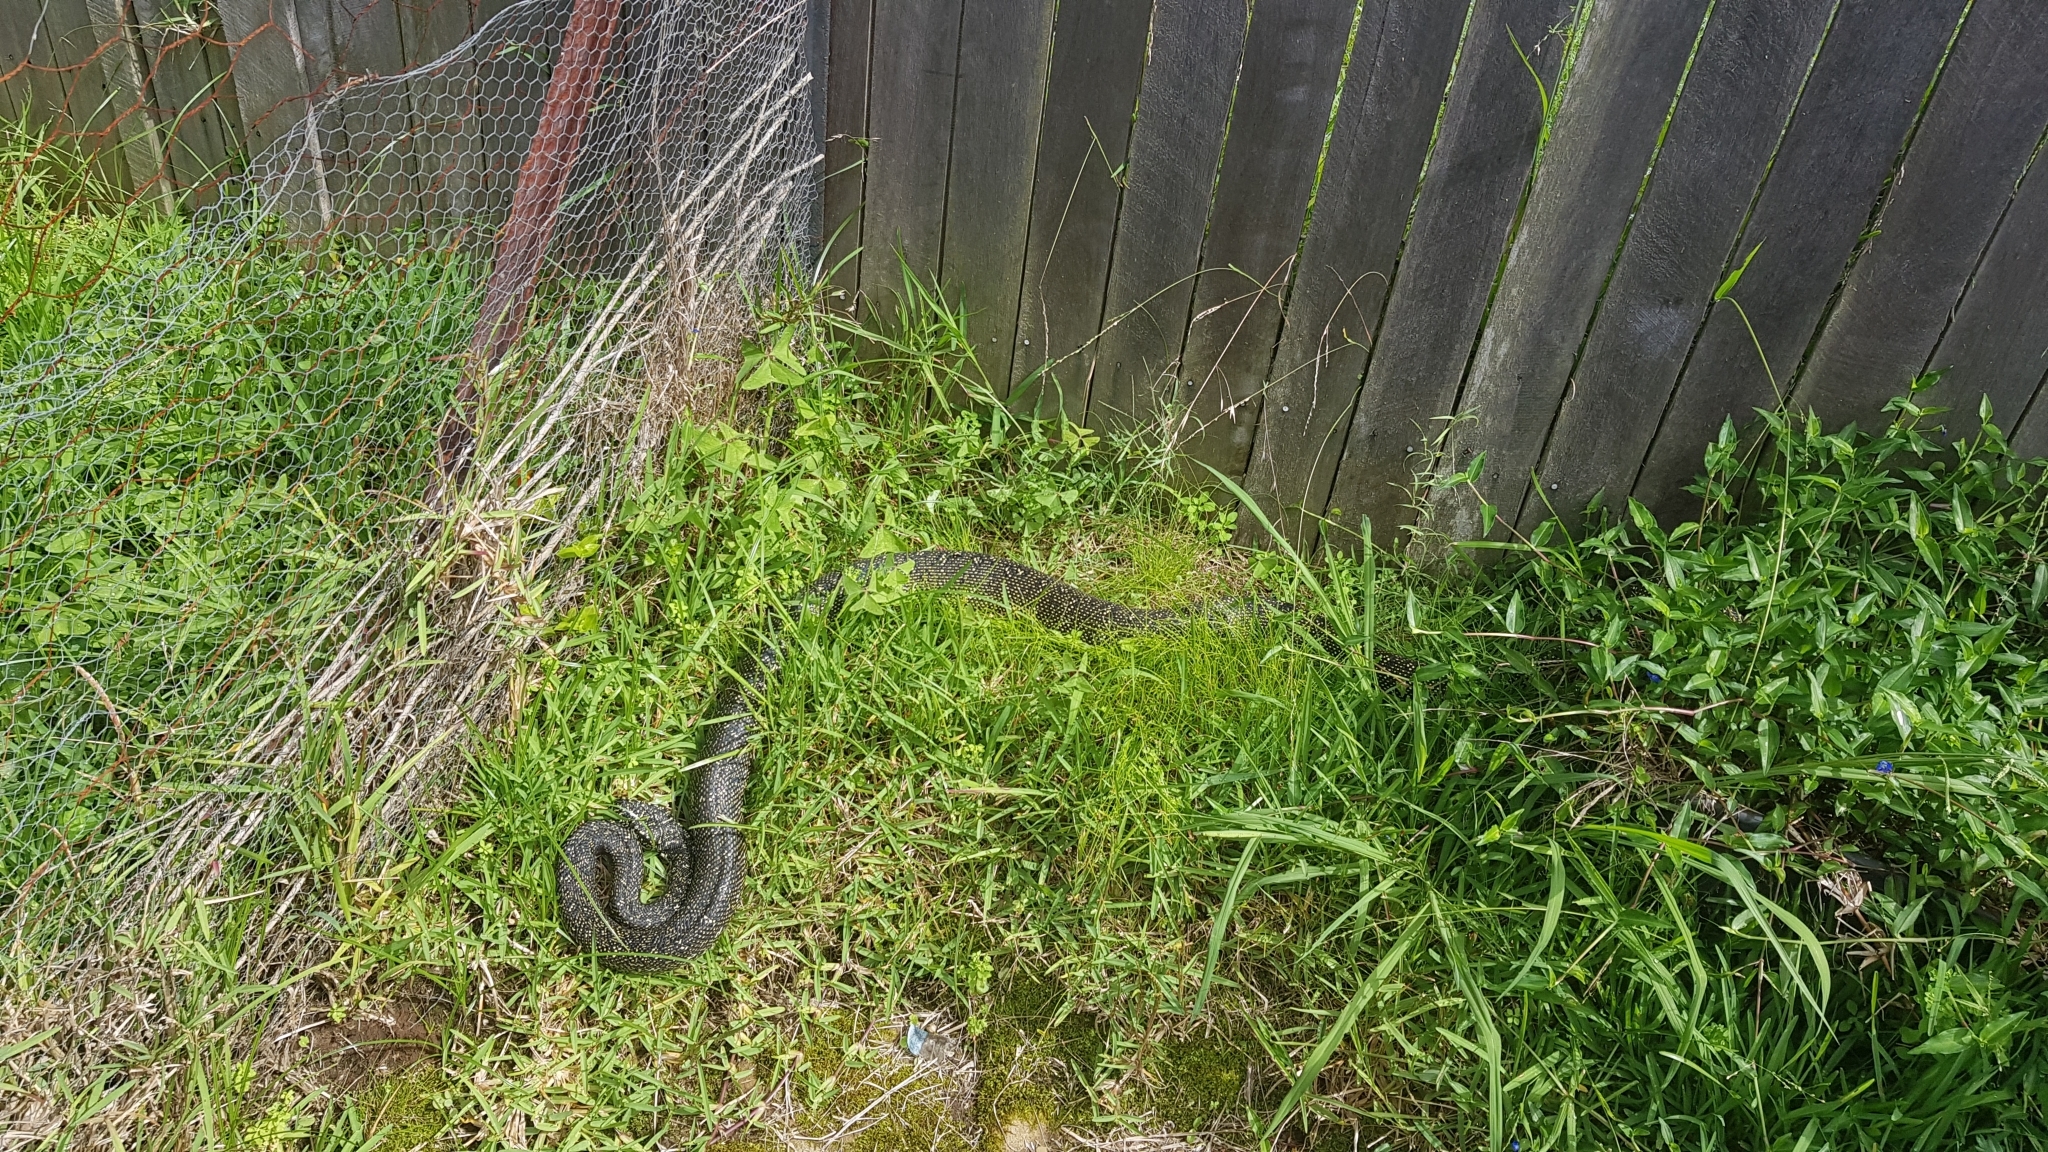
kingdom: Animalia
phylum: Chordata
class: Squamata
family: Pythonidae
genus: Morelia
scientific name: Morelia spilota
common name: Carpet python
